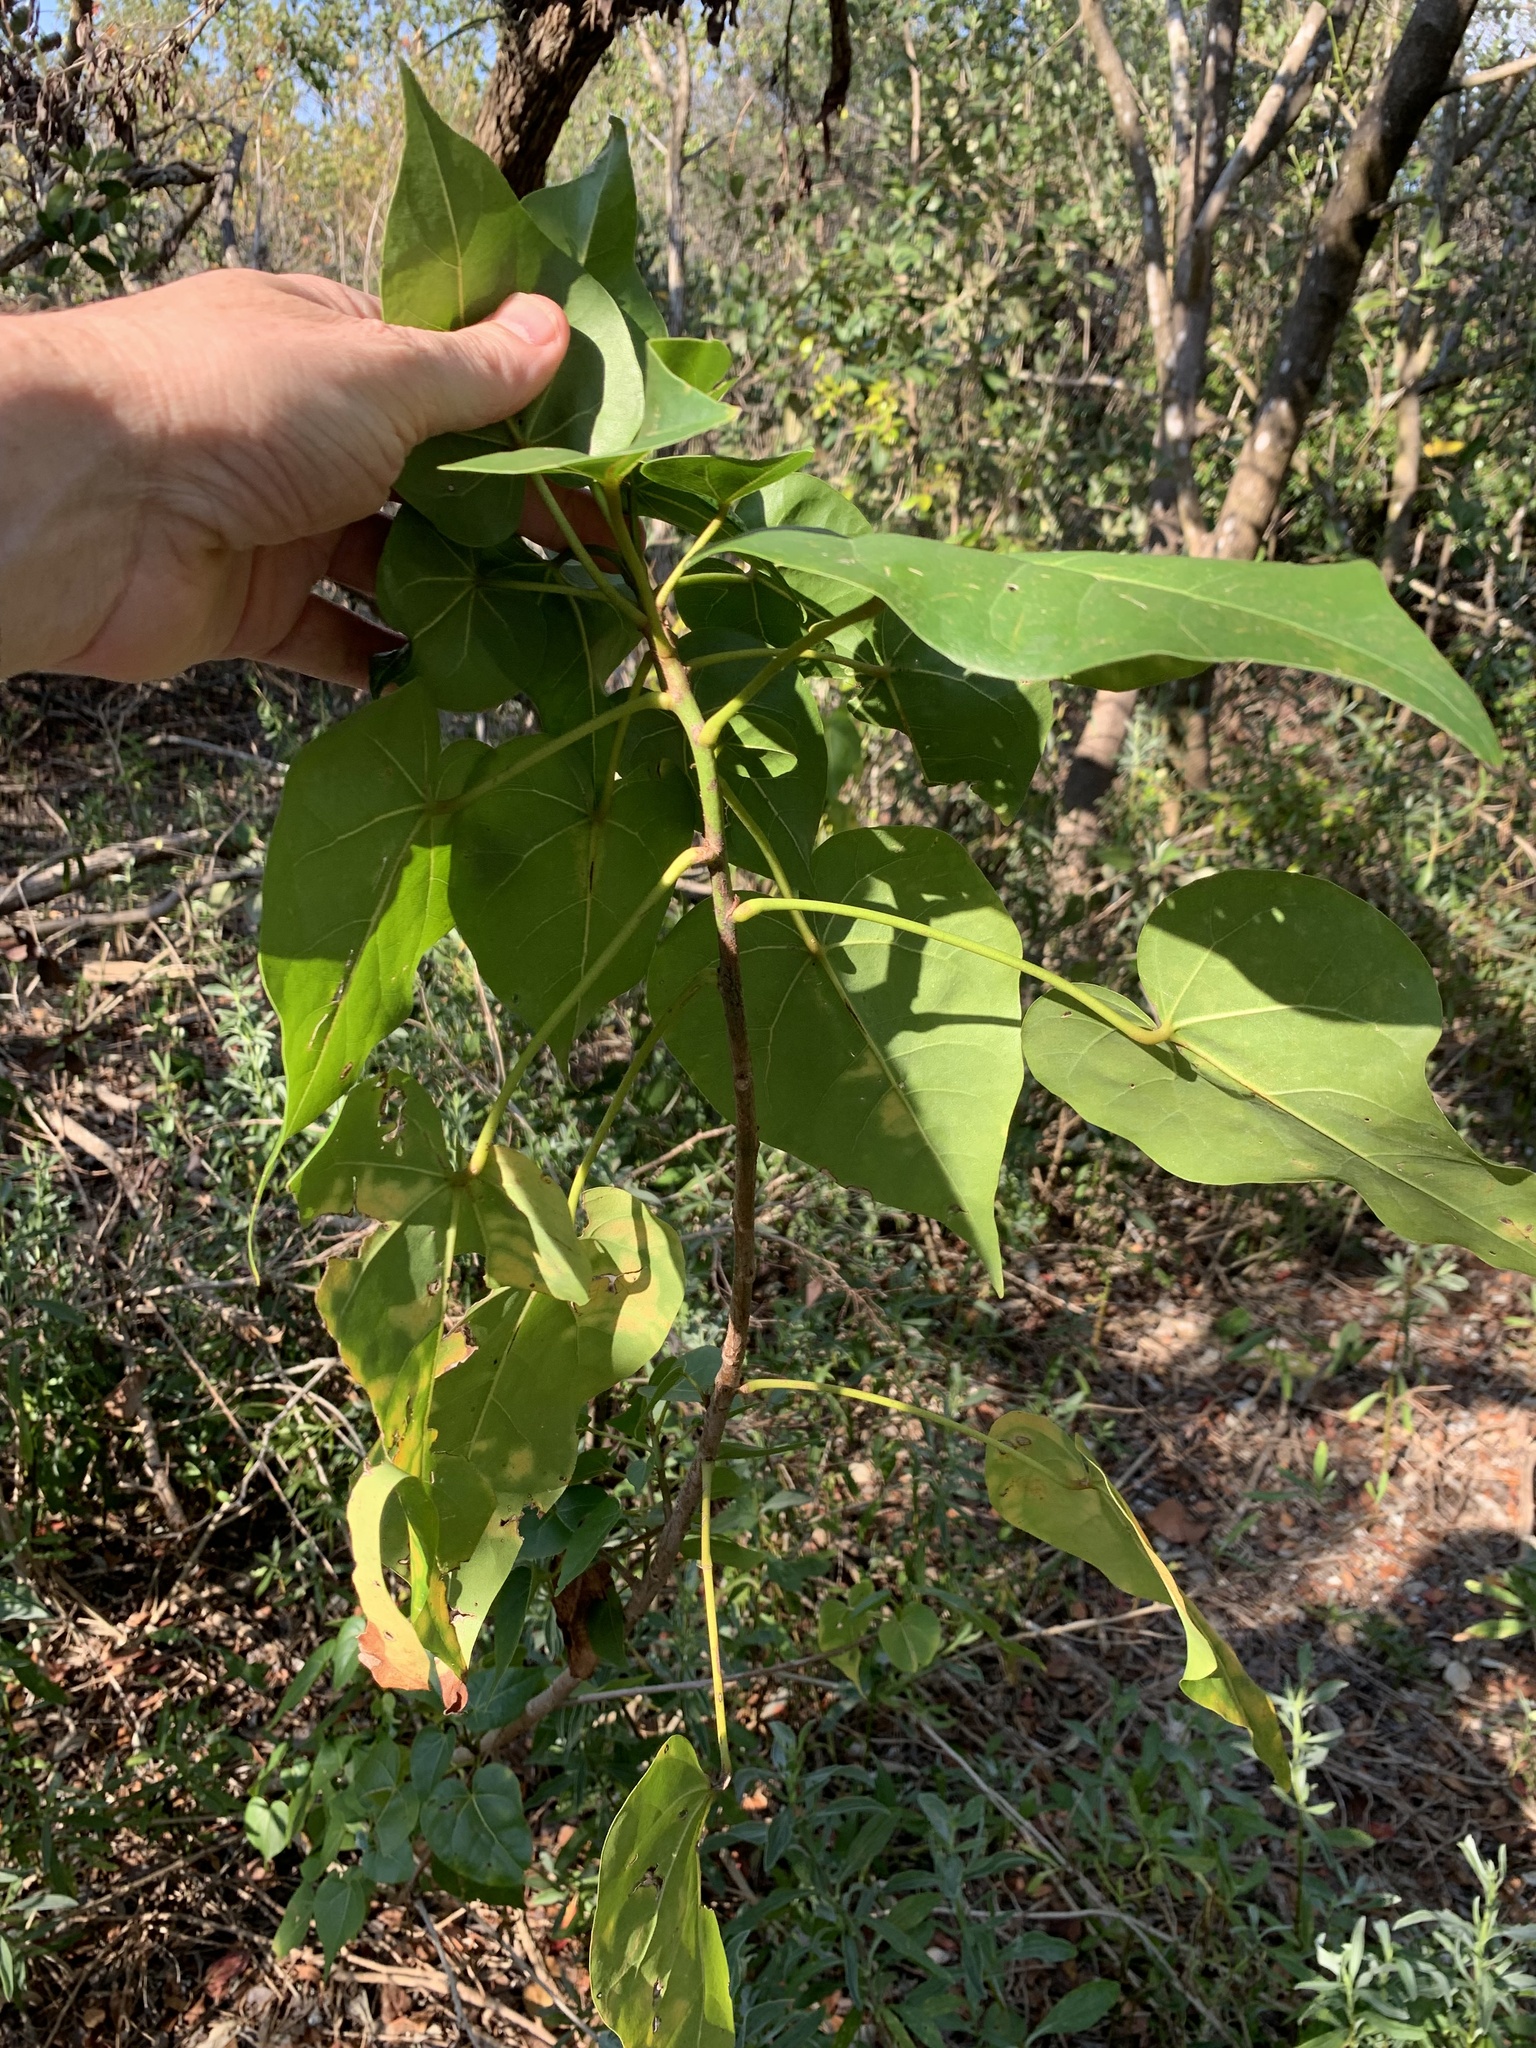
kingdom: Plantae
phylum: Tracheophyta
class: Magnoliopsida
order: Malvales
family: Malvaceae
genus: Thespesia
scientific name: Thespesia populnea
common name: Seaside mahoe
